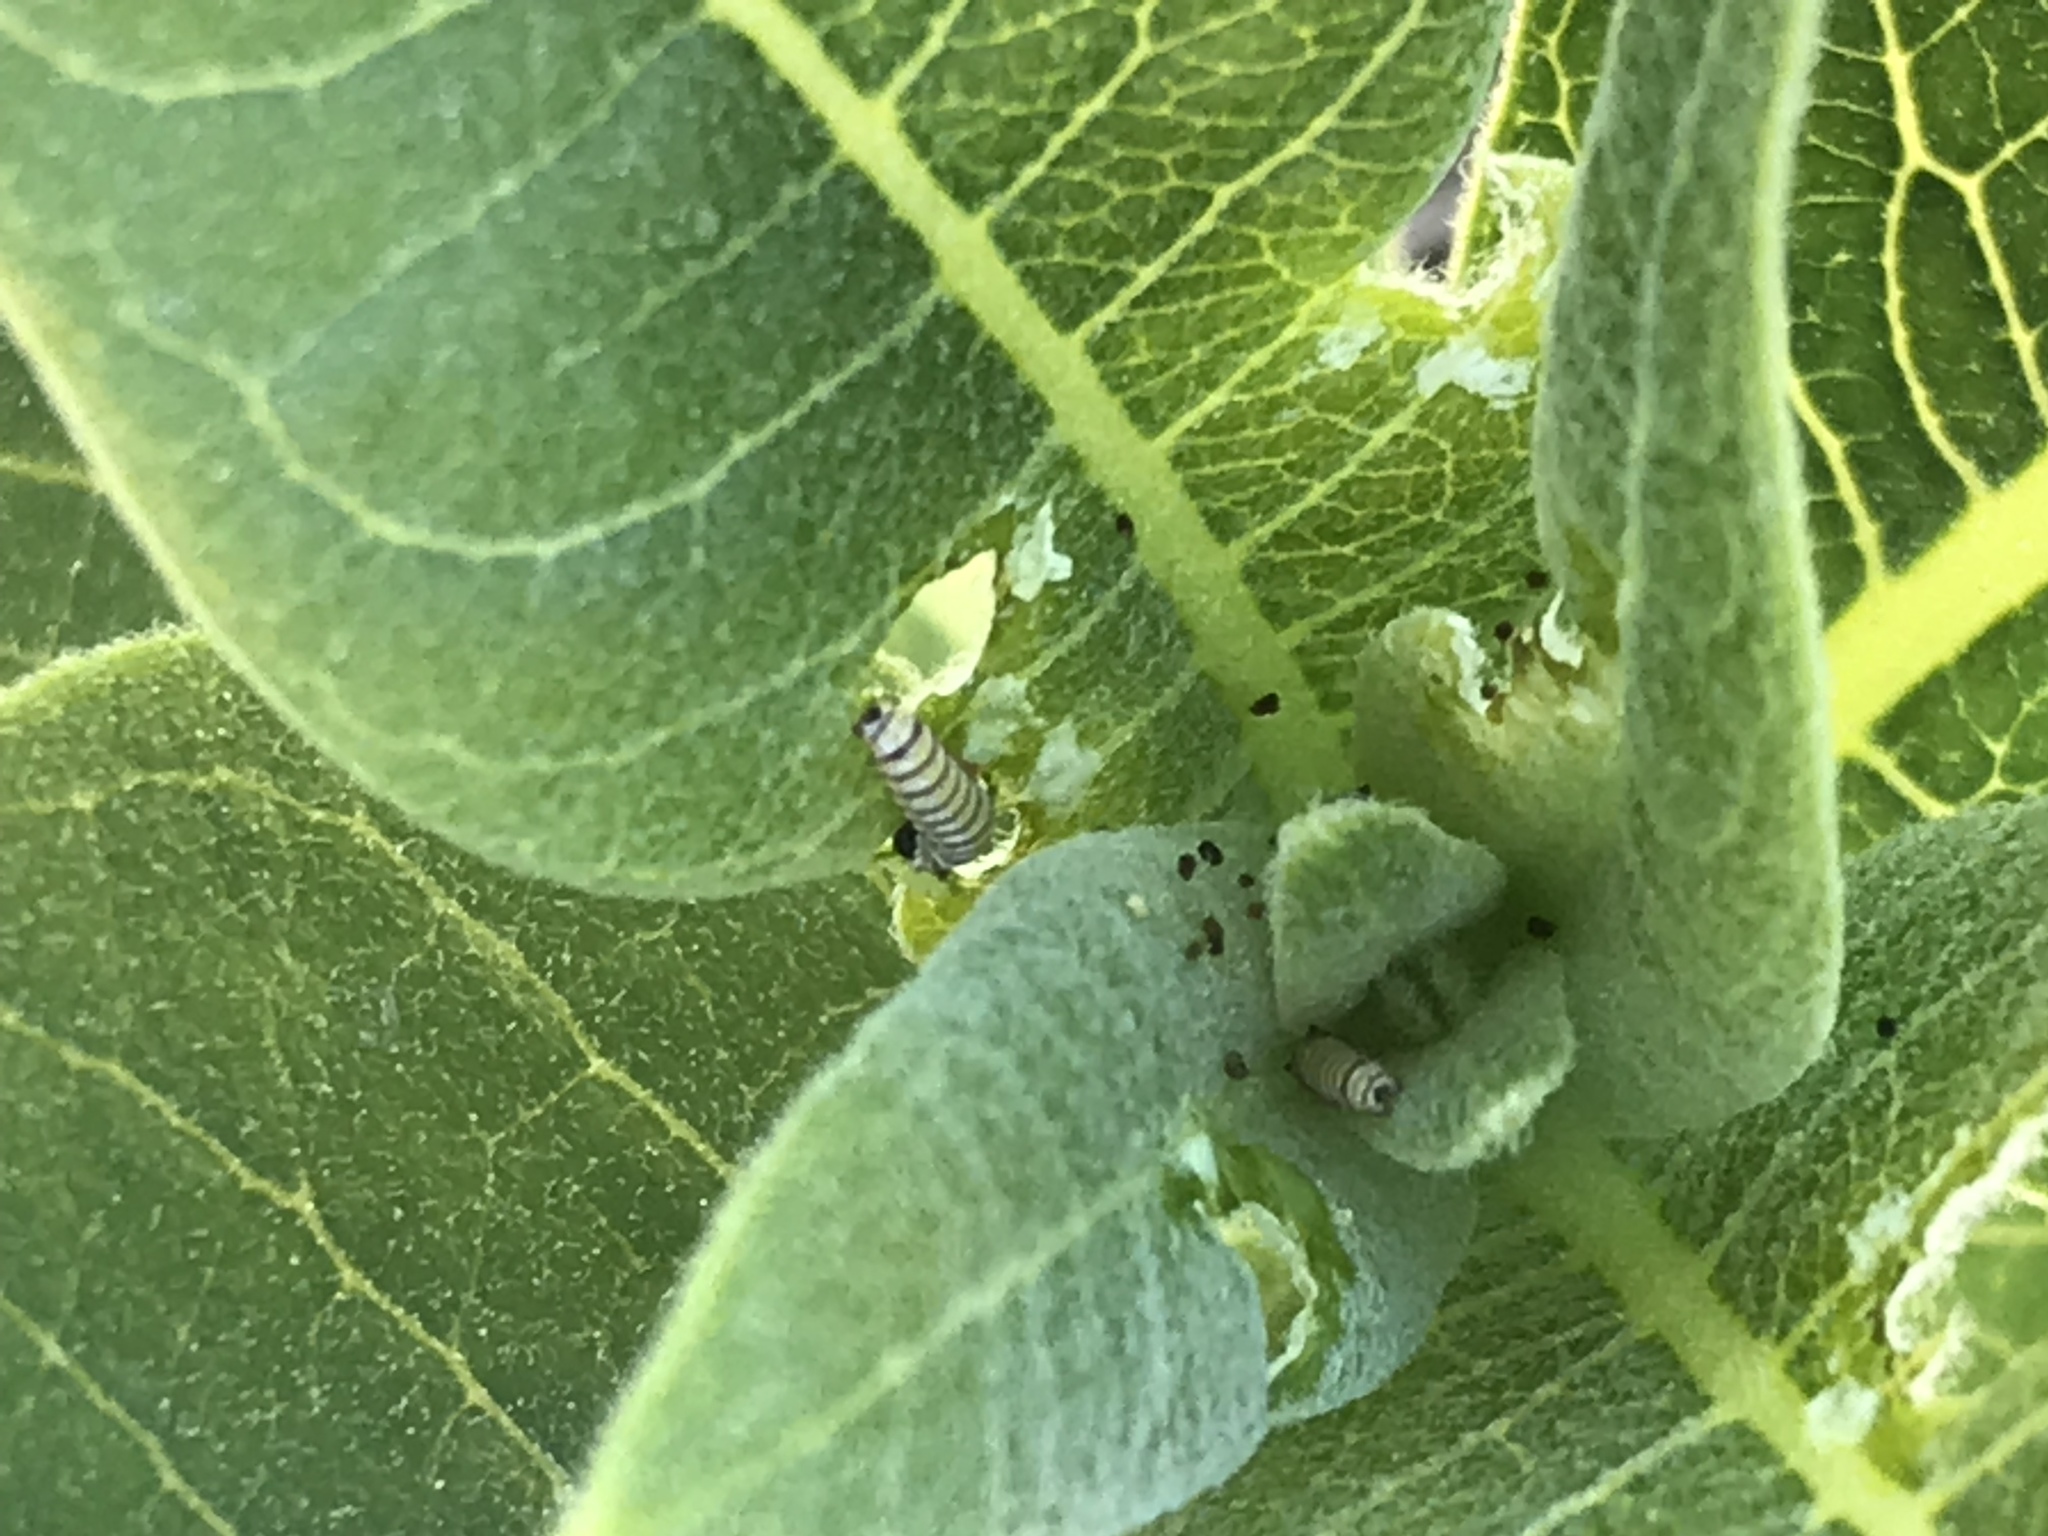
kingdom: Animalia
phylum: Arthropoda
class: Insecta
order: Lepidoptera
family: Nymphalidae
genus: Danaus
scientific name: Danaus plexippus
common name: Monarch
